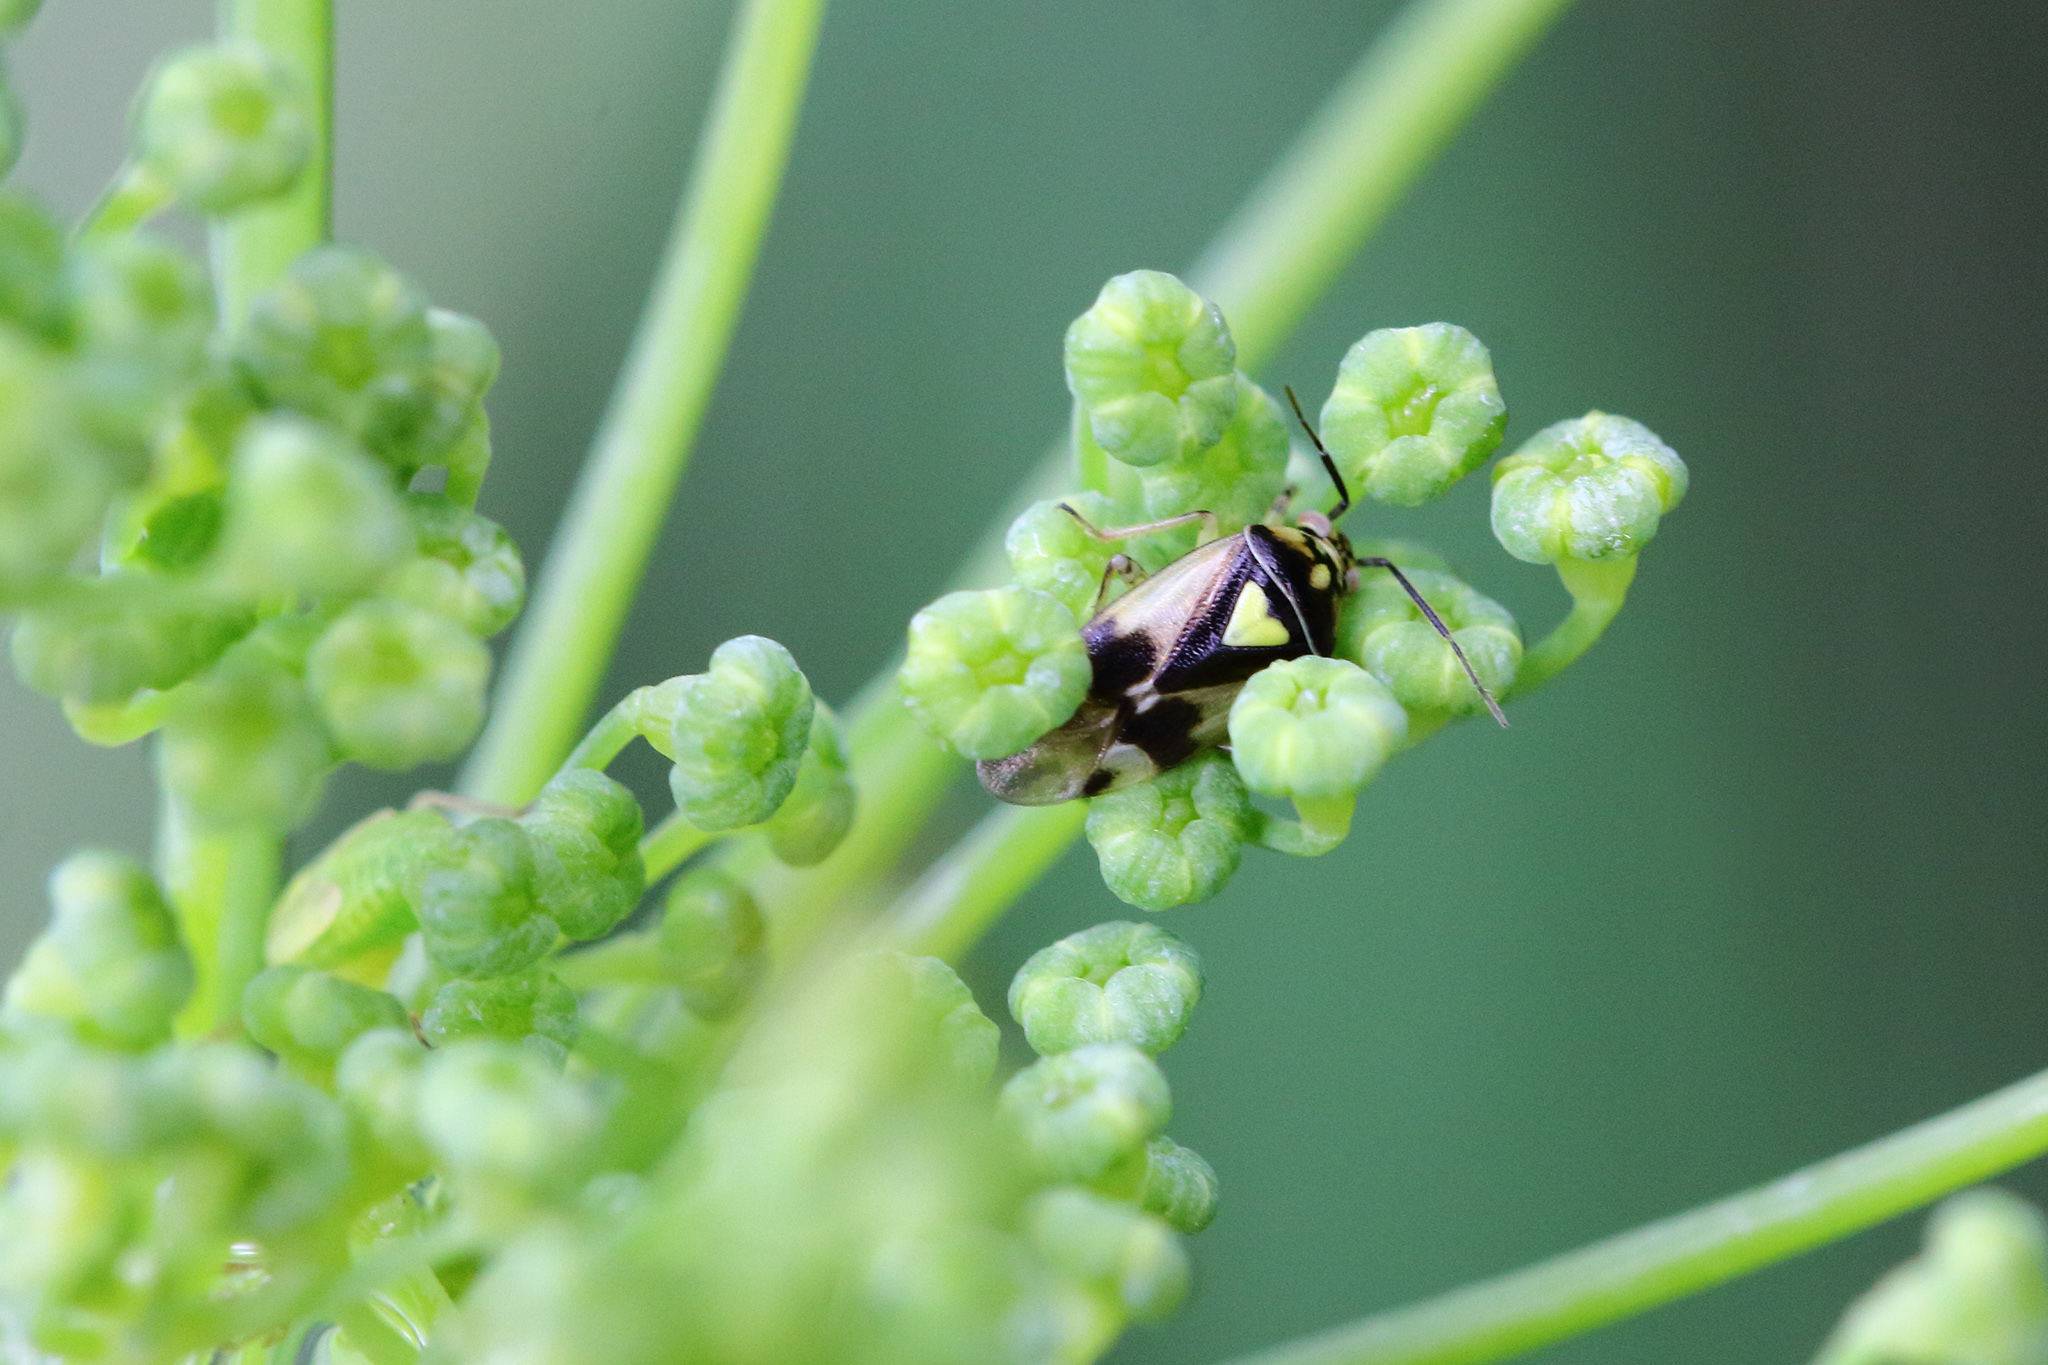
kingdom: Animalia
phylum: Arthropoda
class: Insecta
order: Hemiptera
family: Miridae
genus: Orthops
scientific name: Orthops kalmii
